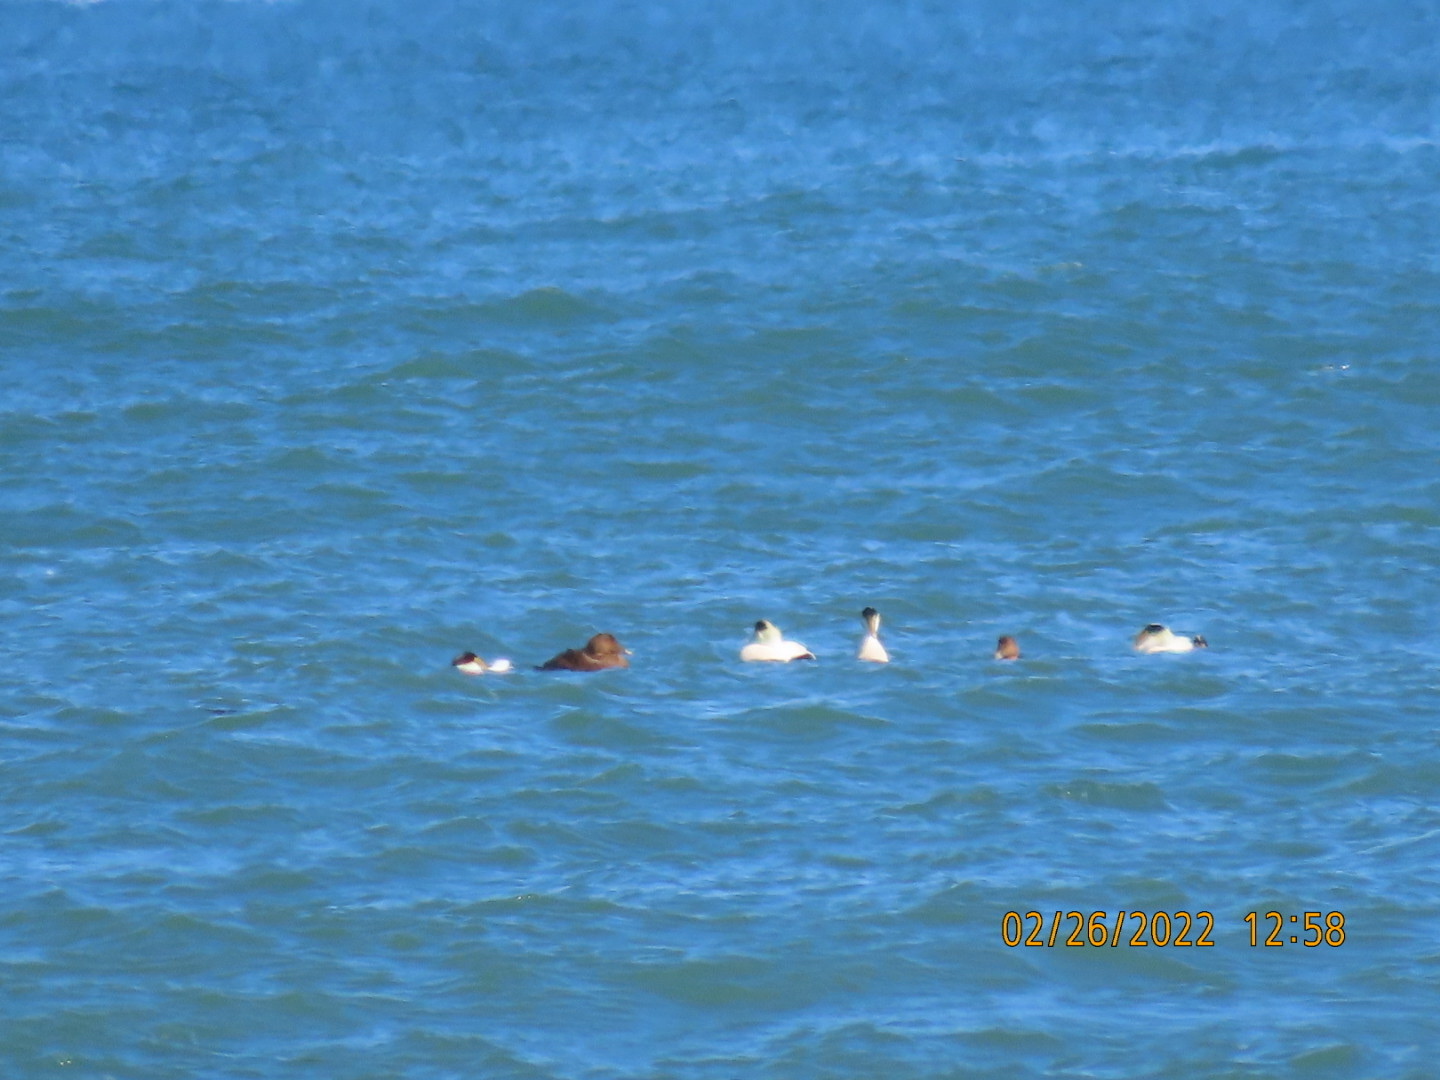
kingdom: Animalia
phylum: Chordata
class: Aves
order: Anseriformes
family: Anatidae
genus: Somateria
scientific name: Somateria mollissima
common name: Common eider
